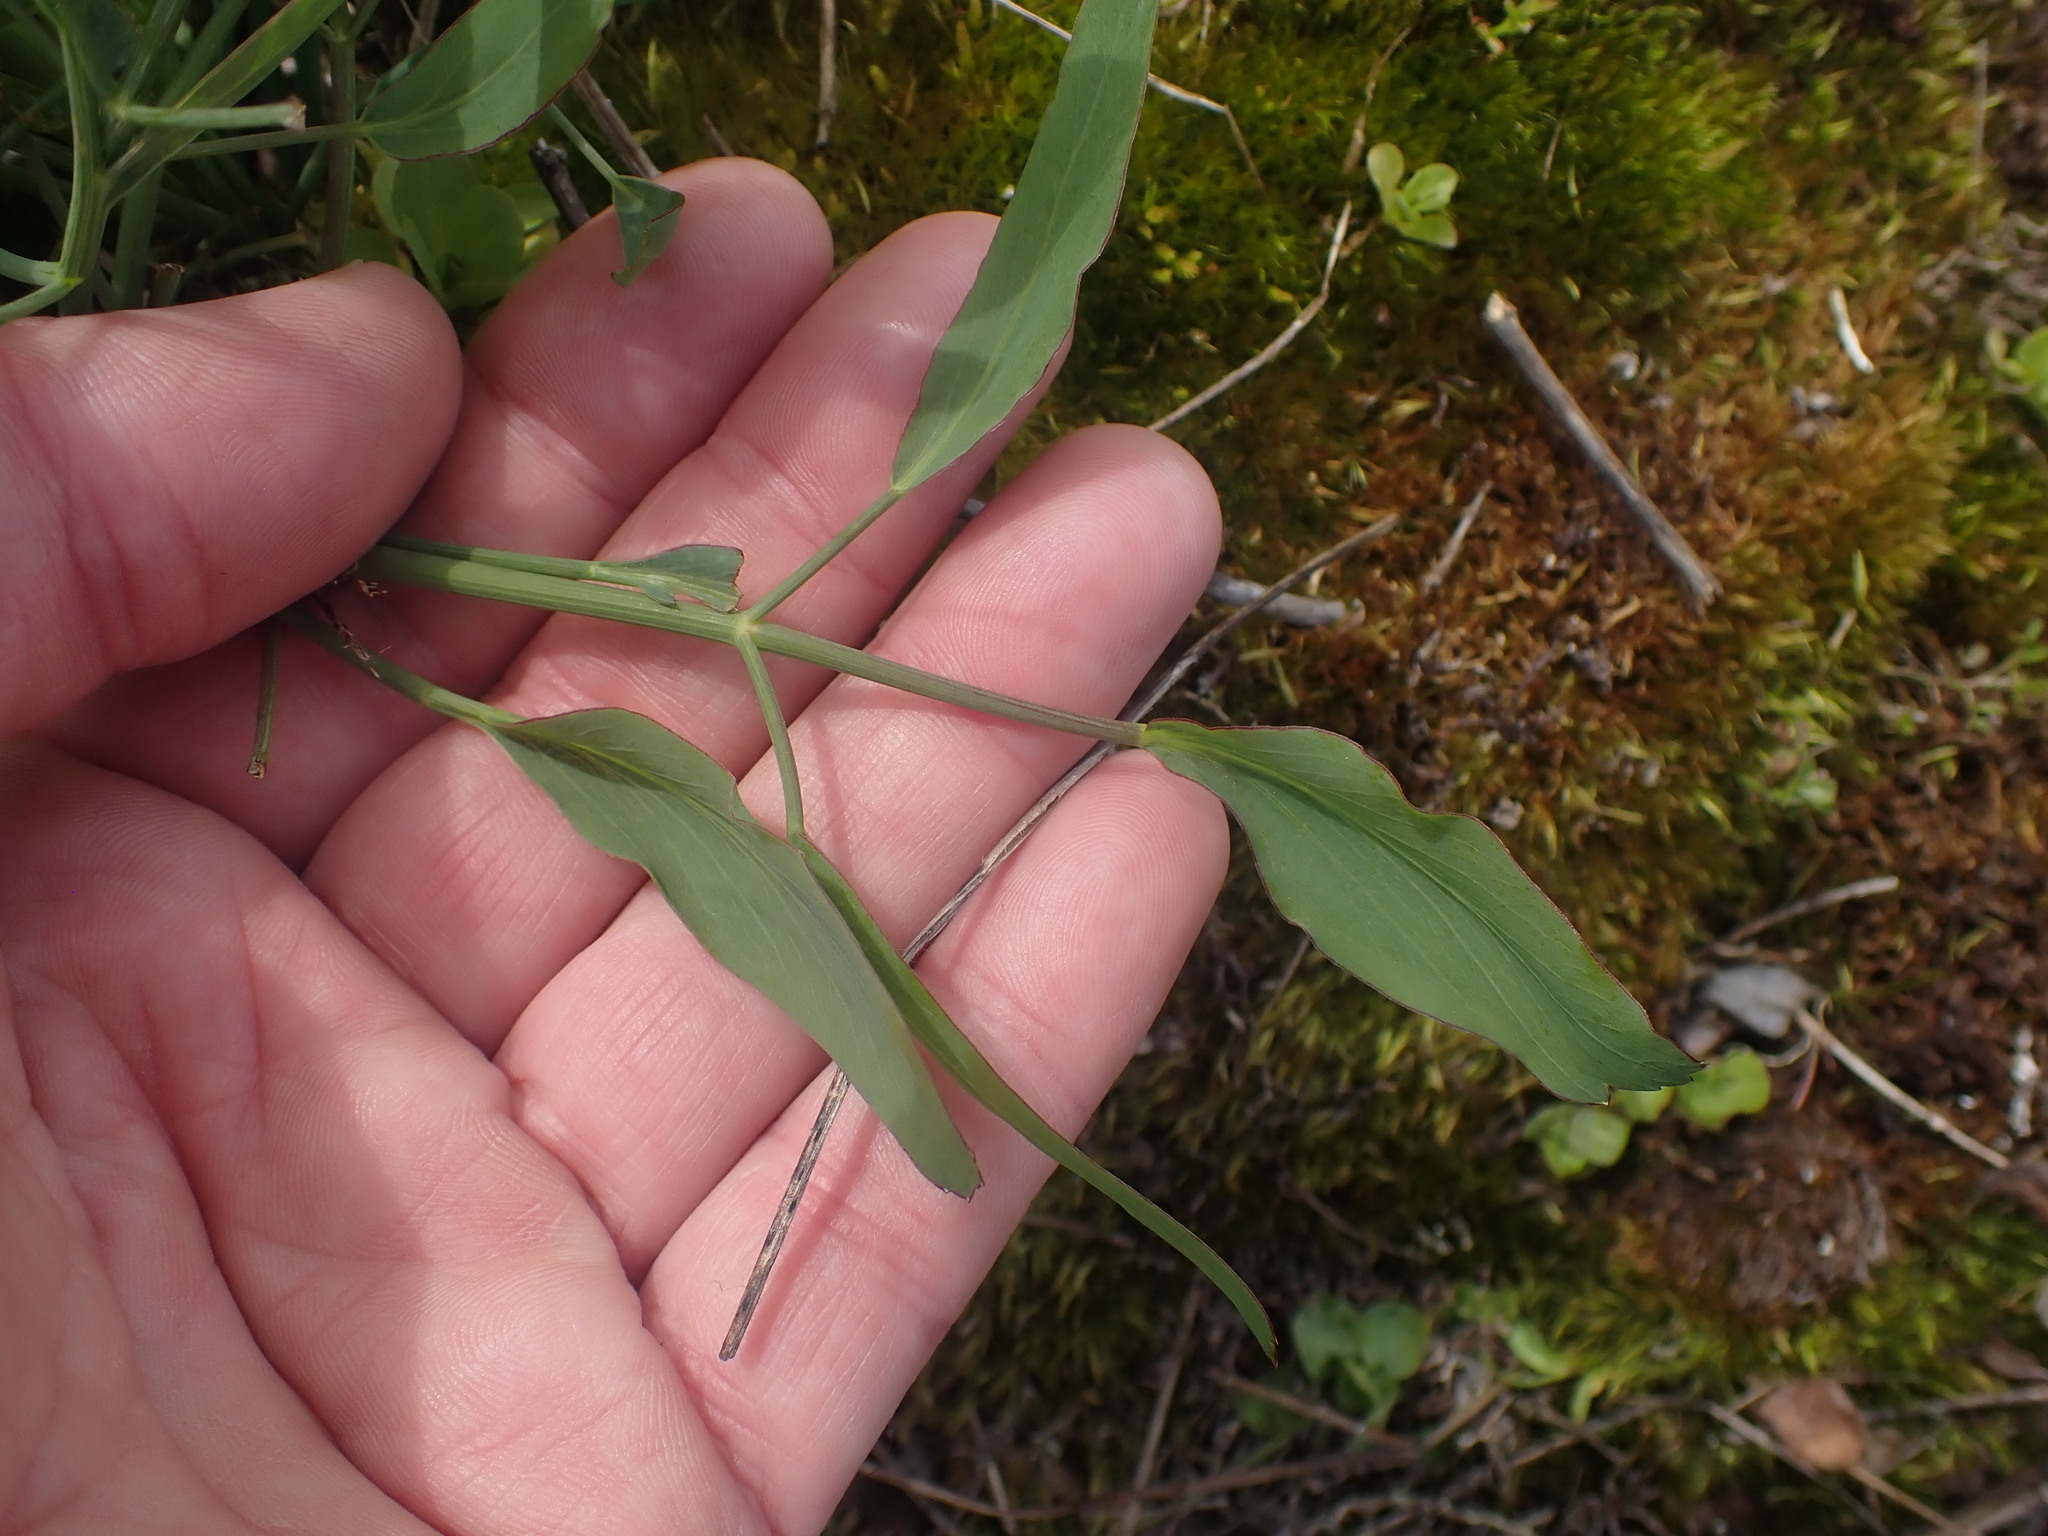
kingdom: Plantae
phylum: Tracheophyta
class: Magnoliopsida
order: Apiales
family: Apiaceae
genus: Lomatium
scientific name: Lomatium nudicaule
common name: Pestle lomatium
